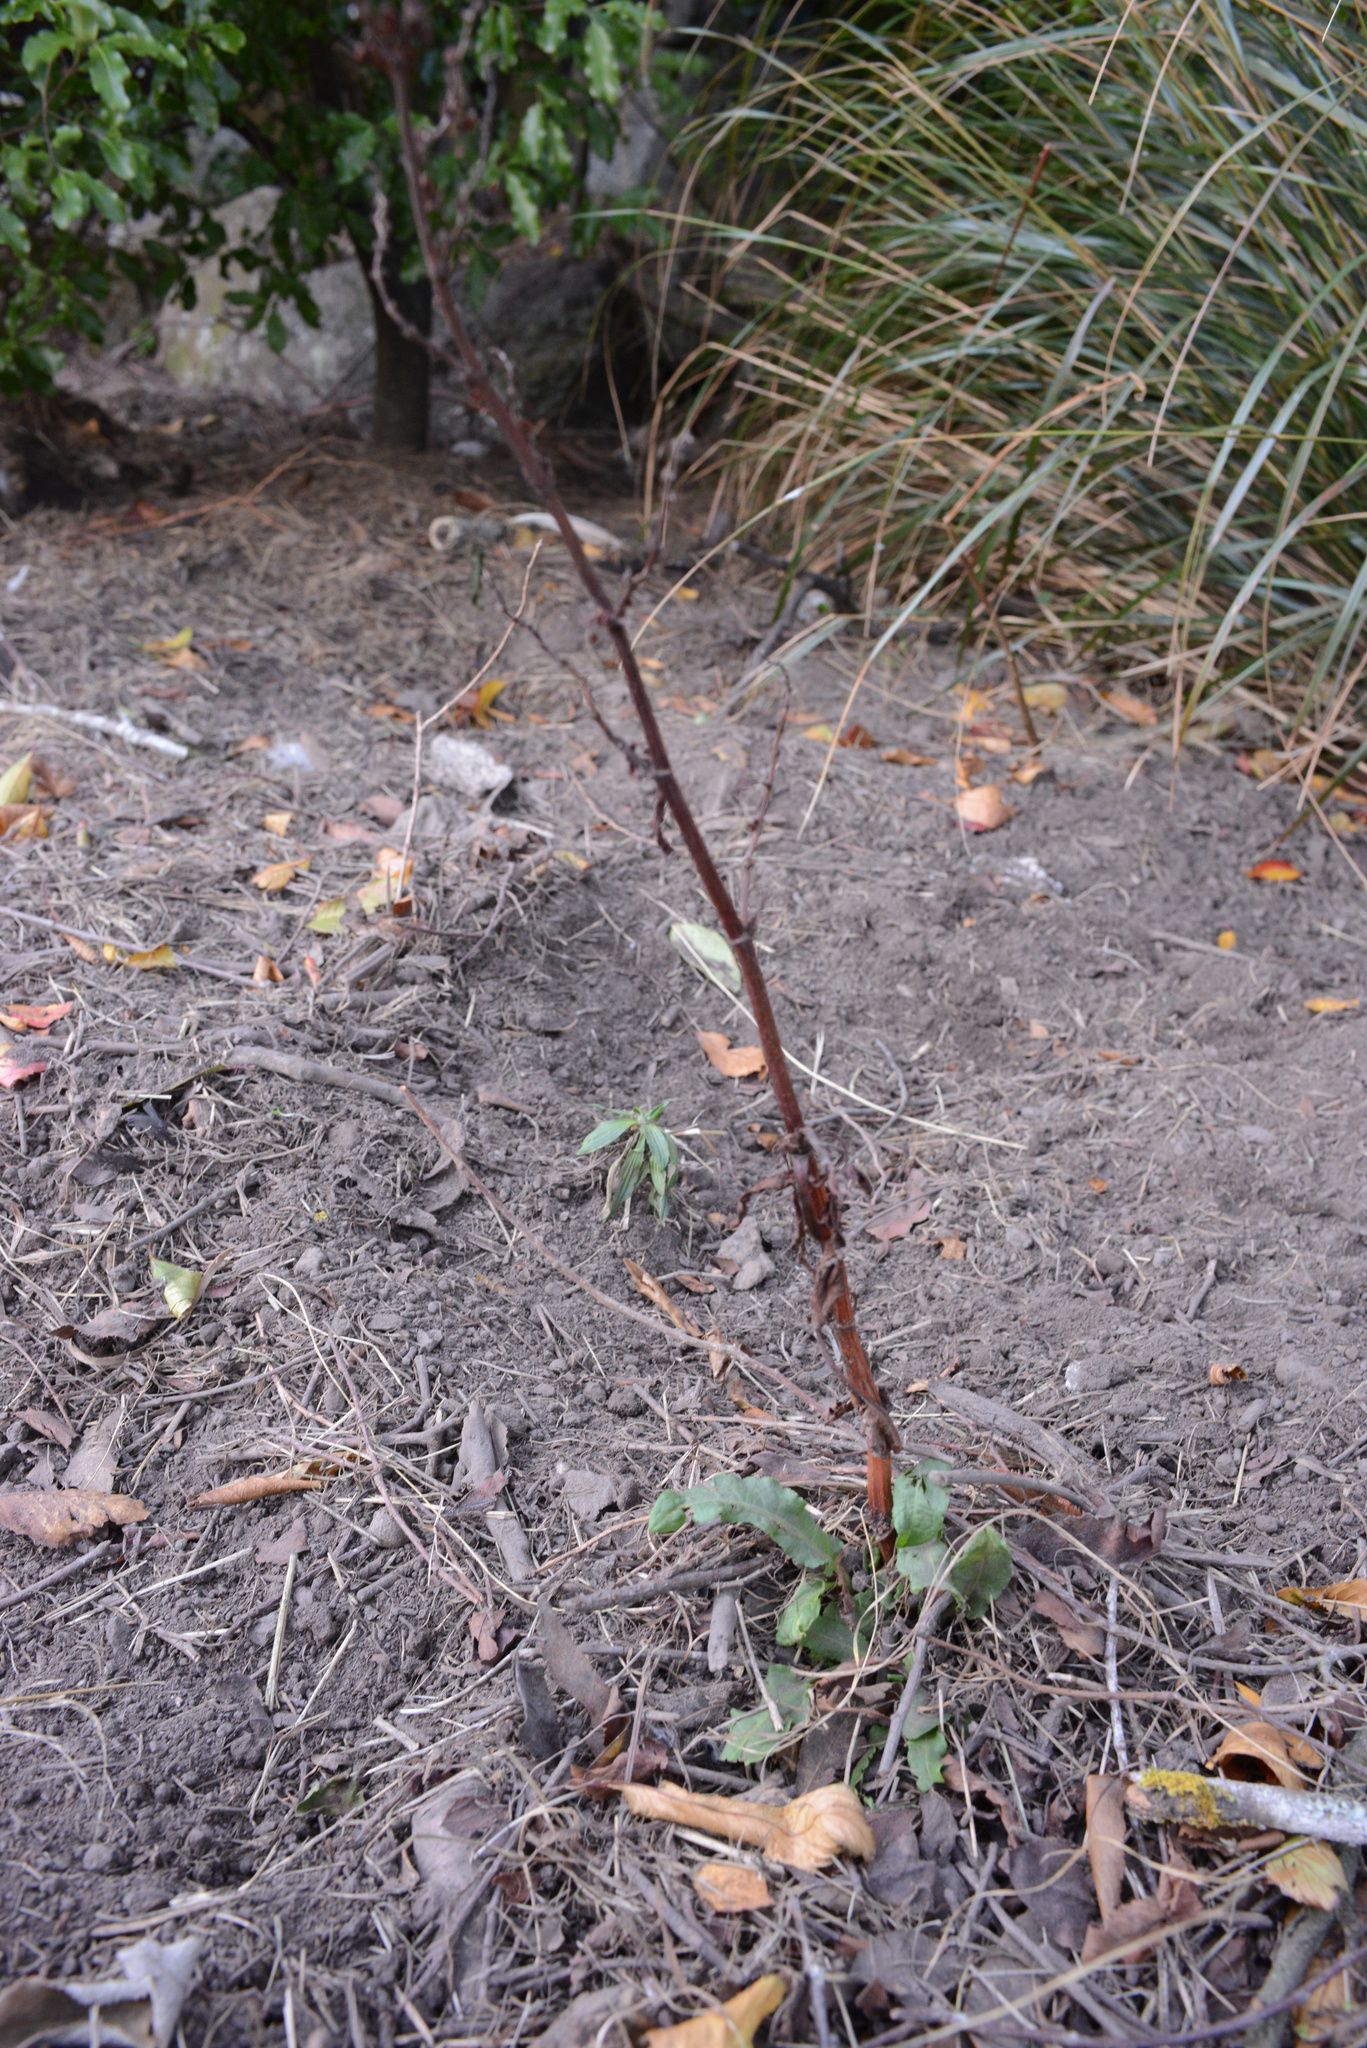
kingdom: Plantae
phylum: Tracheophyta
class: Magnoliopsida
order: Caryophyllales
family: Polygonaceae
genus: Rumex
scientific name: Rumex obtusifolius
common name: Bitter dock
